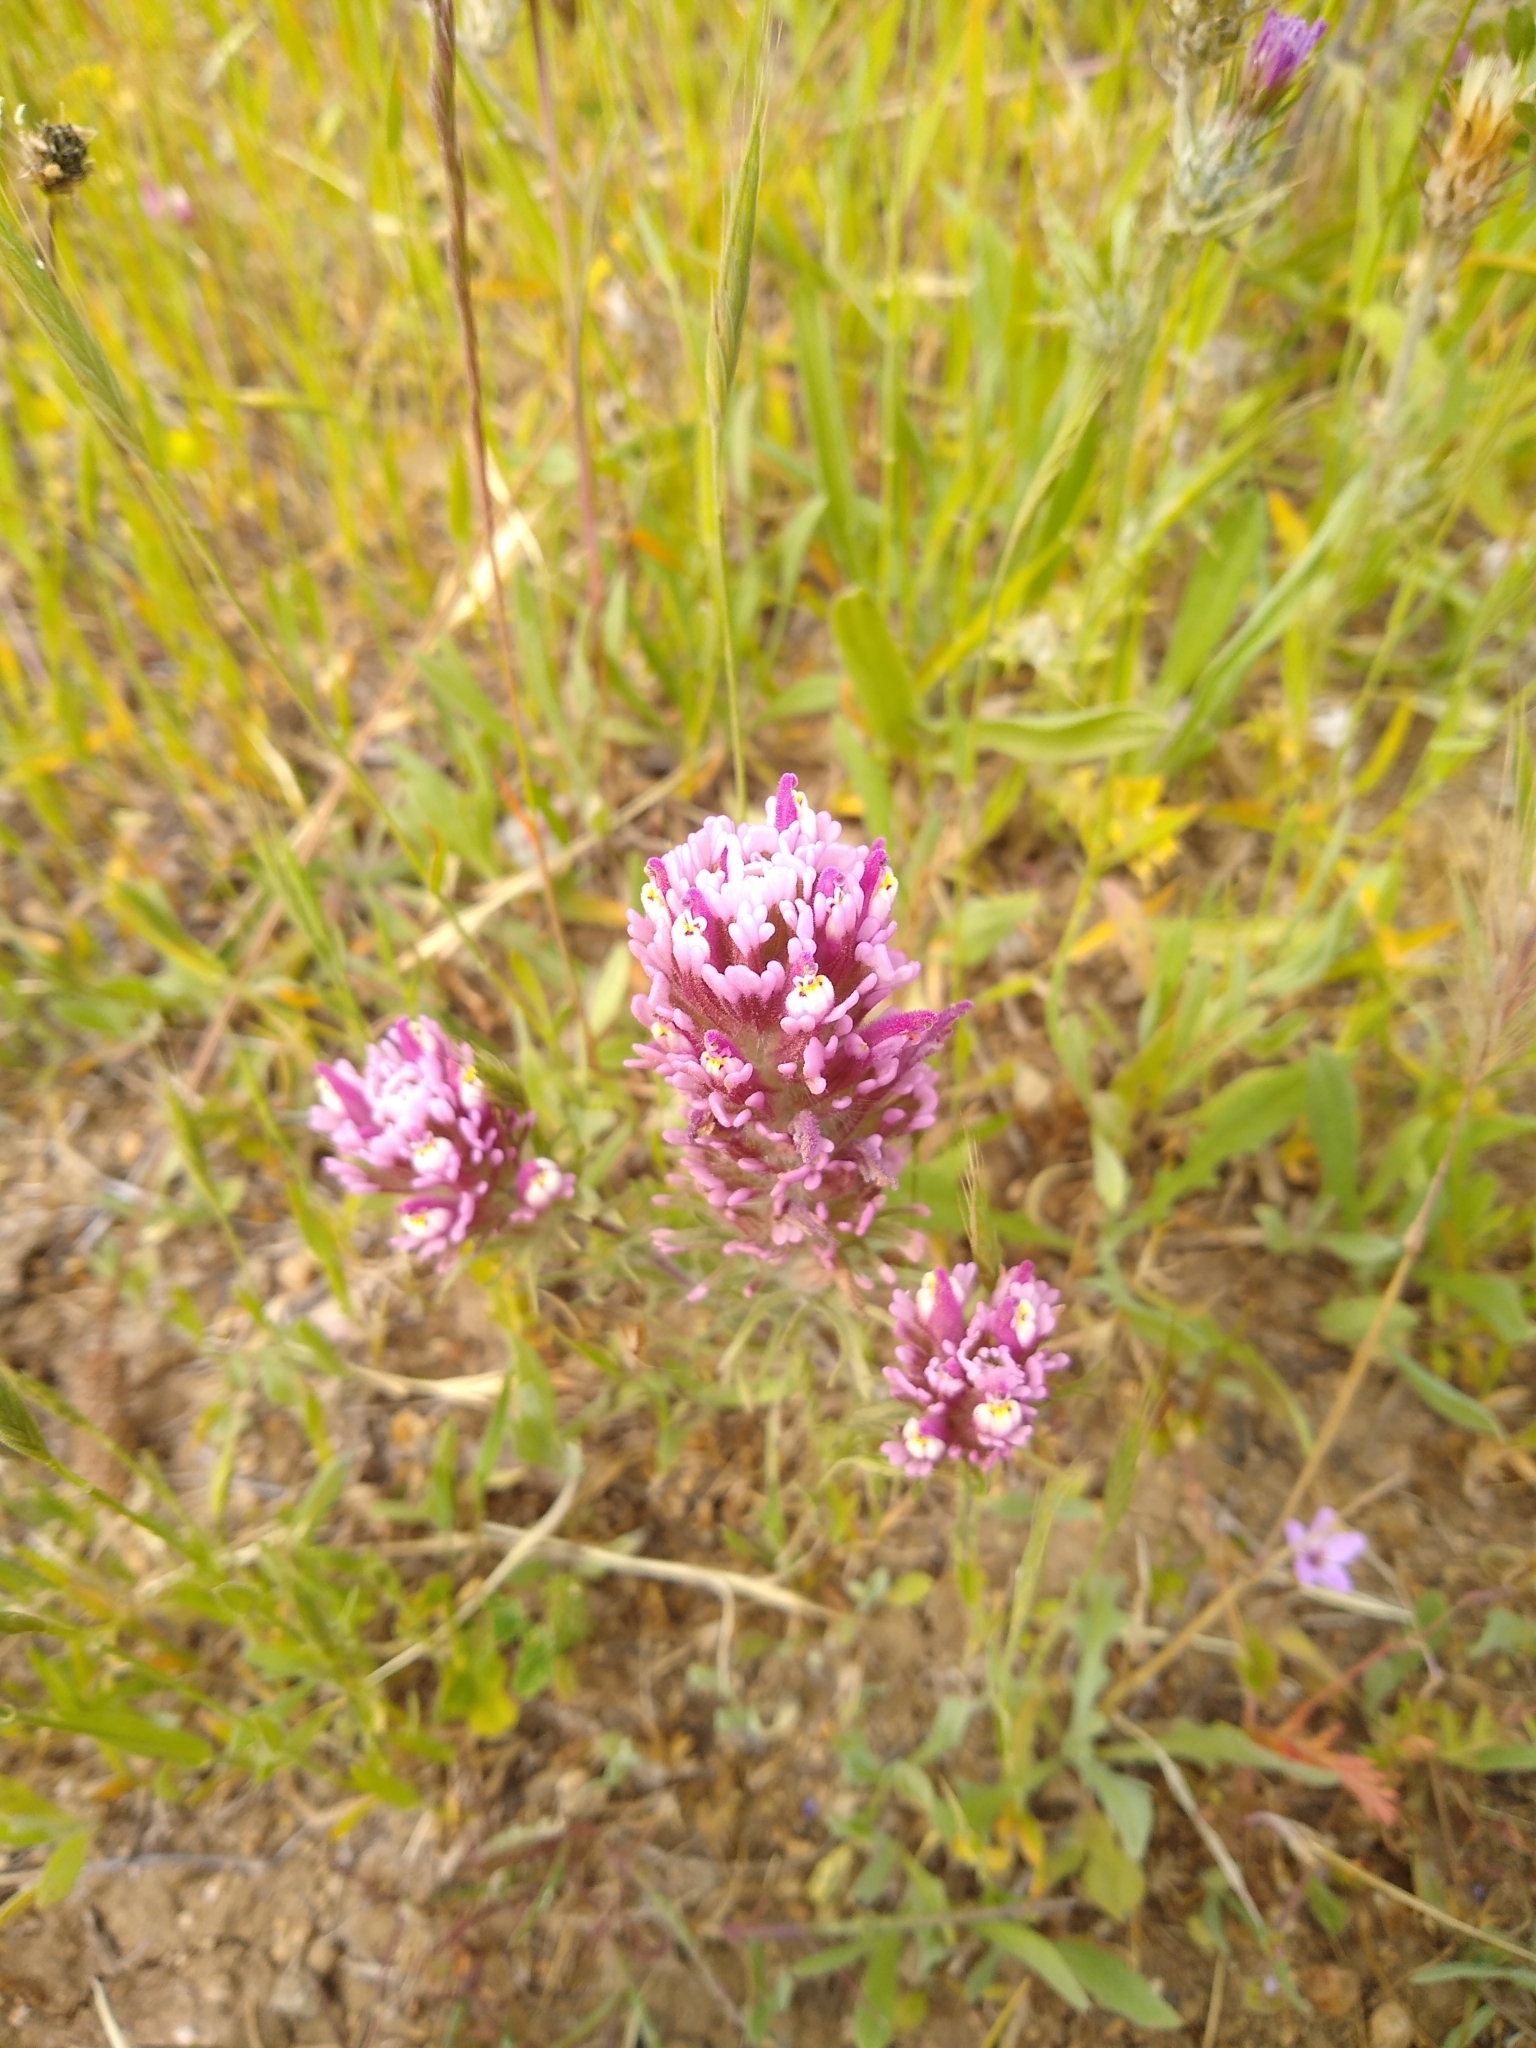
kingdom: Plantae
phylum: Tracheophyta
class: Magnoliopsida
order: Lamiales
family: Orobanchaceae
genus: Castilleja
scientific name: Castilleja exserta
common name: Purple owl-clover
